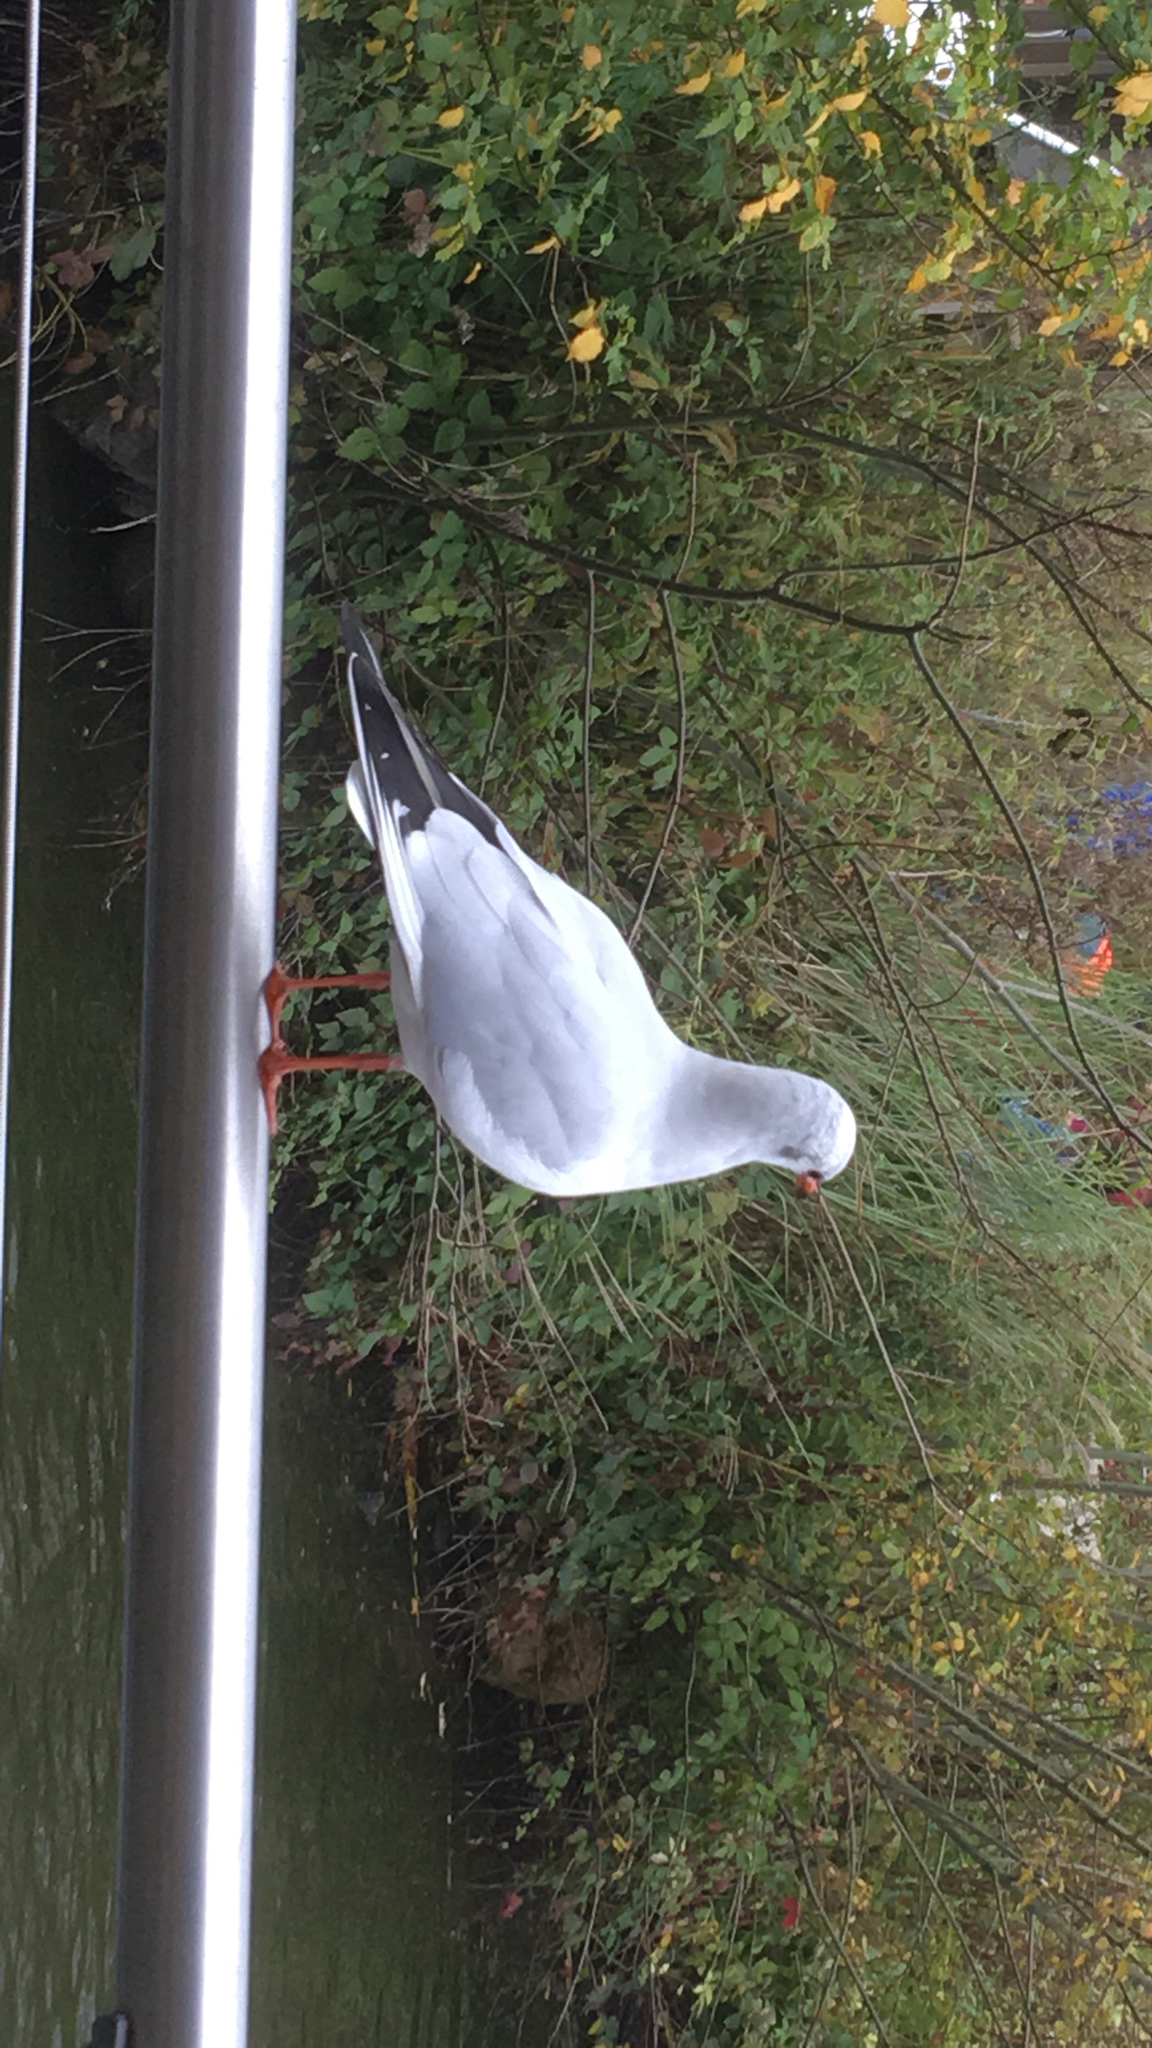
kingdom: Animalia
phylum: Chordata
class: Aves
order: Charadriiformes
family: Laridae
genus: Chroicocephalus
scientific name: Chroicocephalus ridibundus
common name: Black-headed gull
